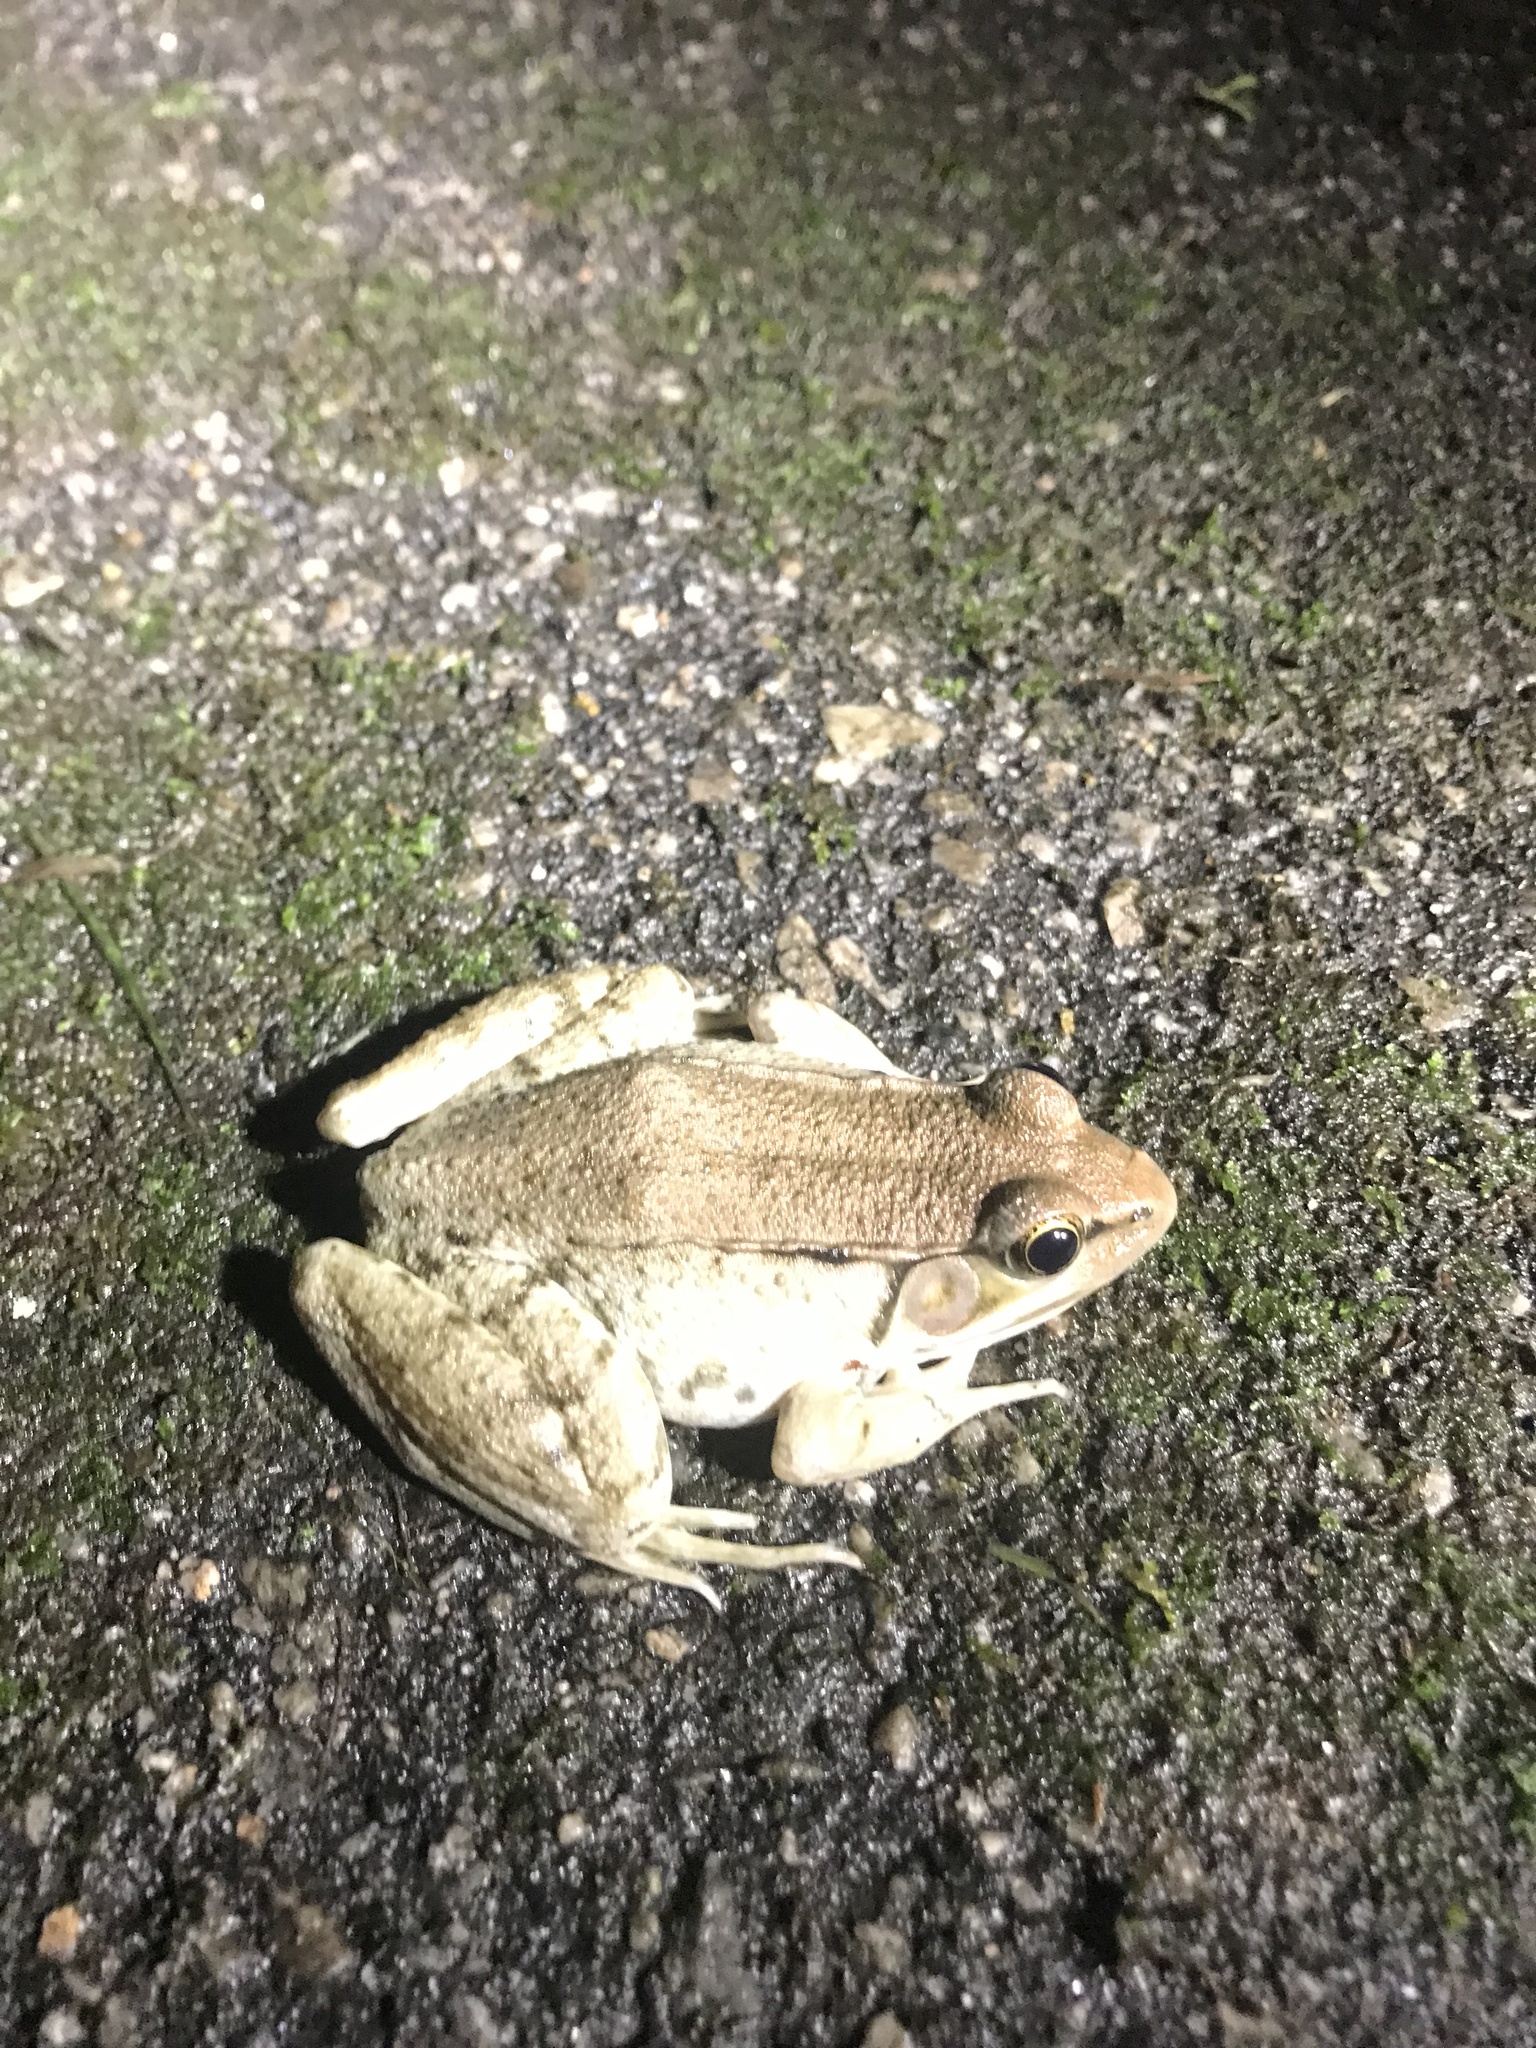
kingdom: Animalia
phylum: Chordata
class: Amphibia
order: Anura
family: Ranidae
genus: Lithobates
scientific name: Lithobates clamitans
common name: Green frog
